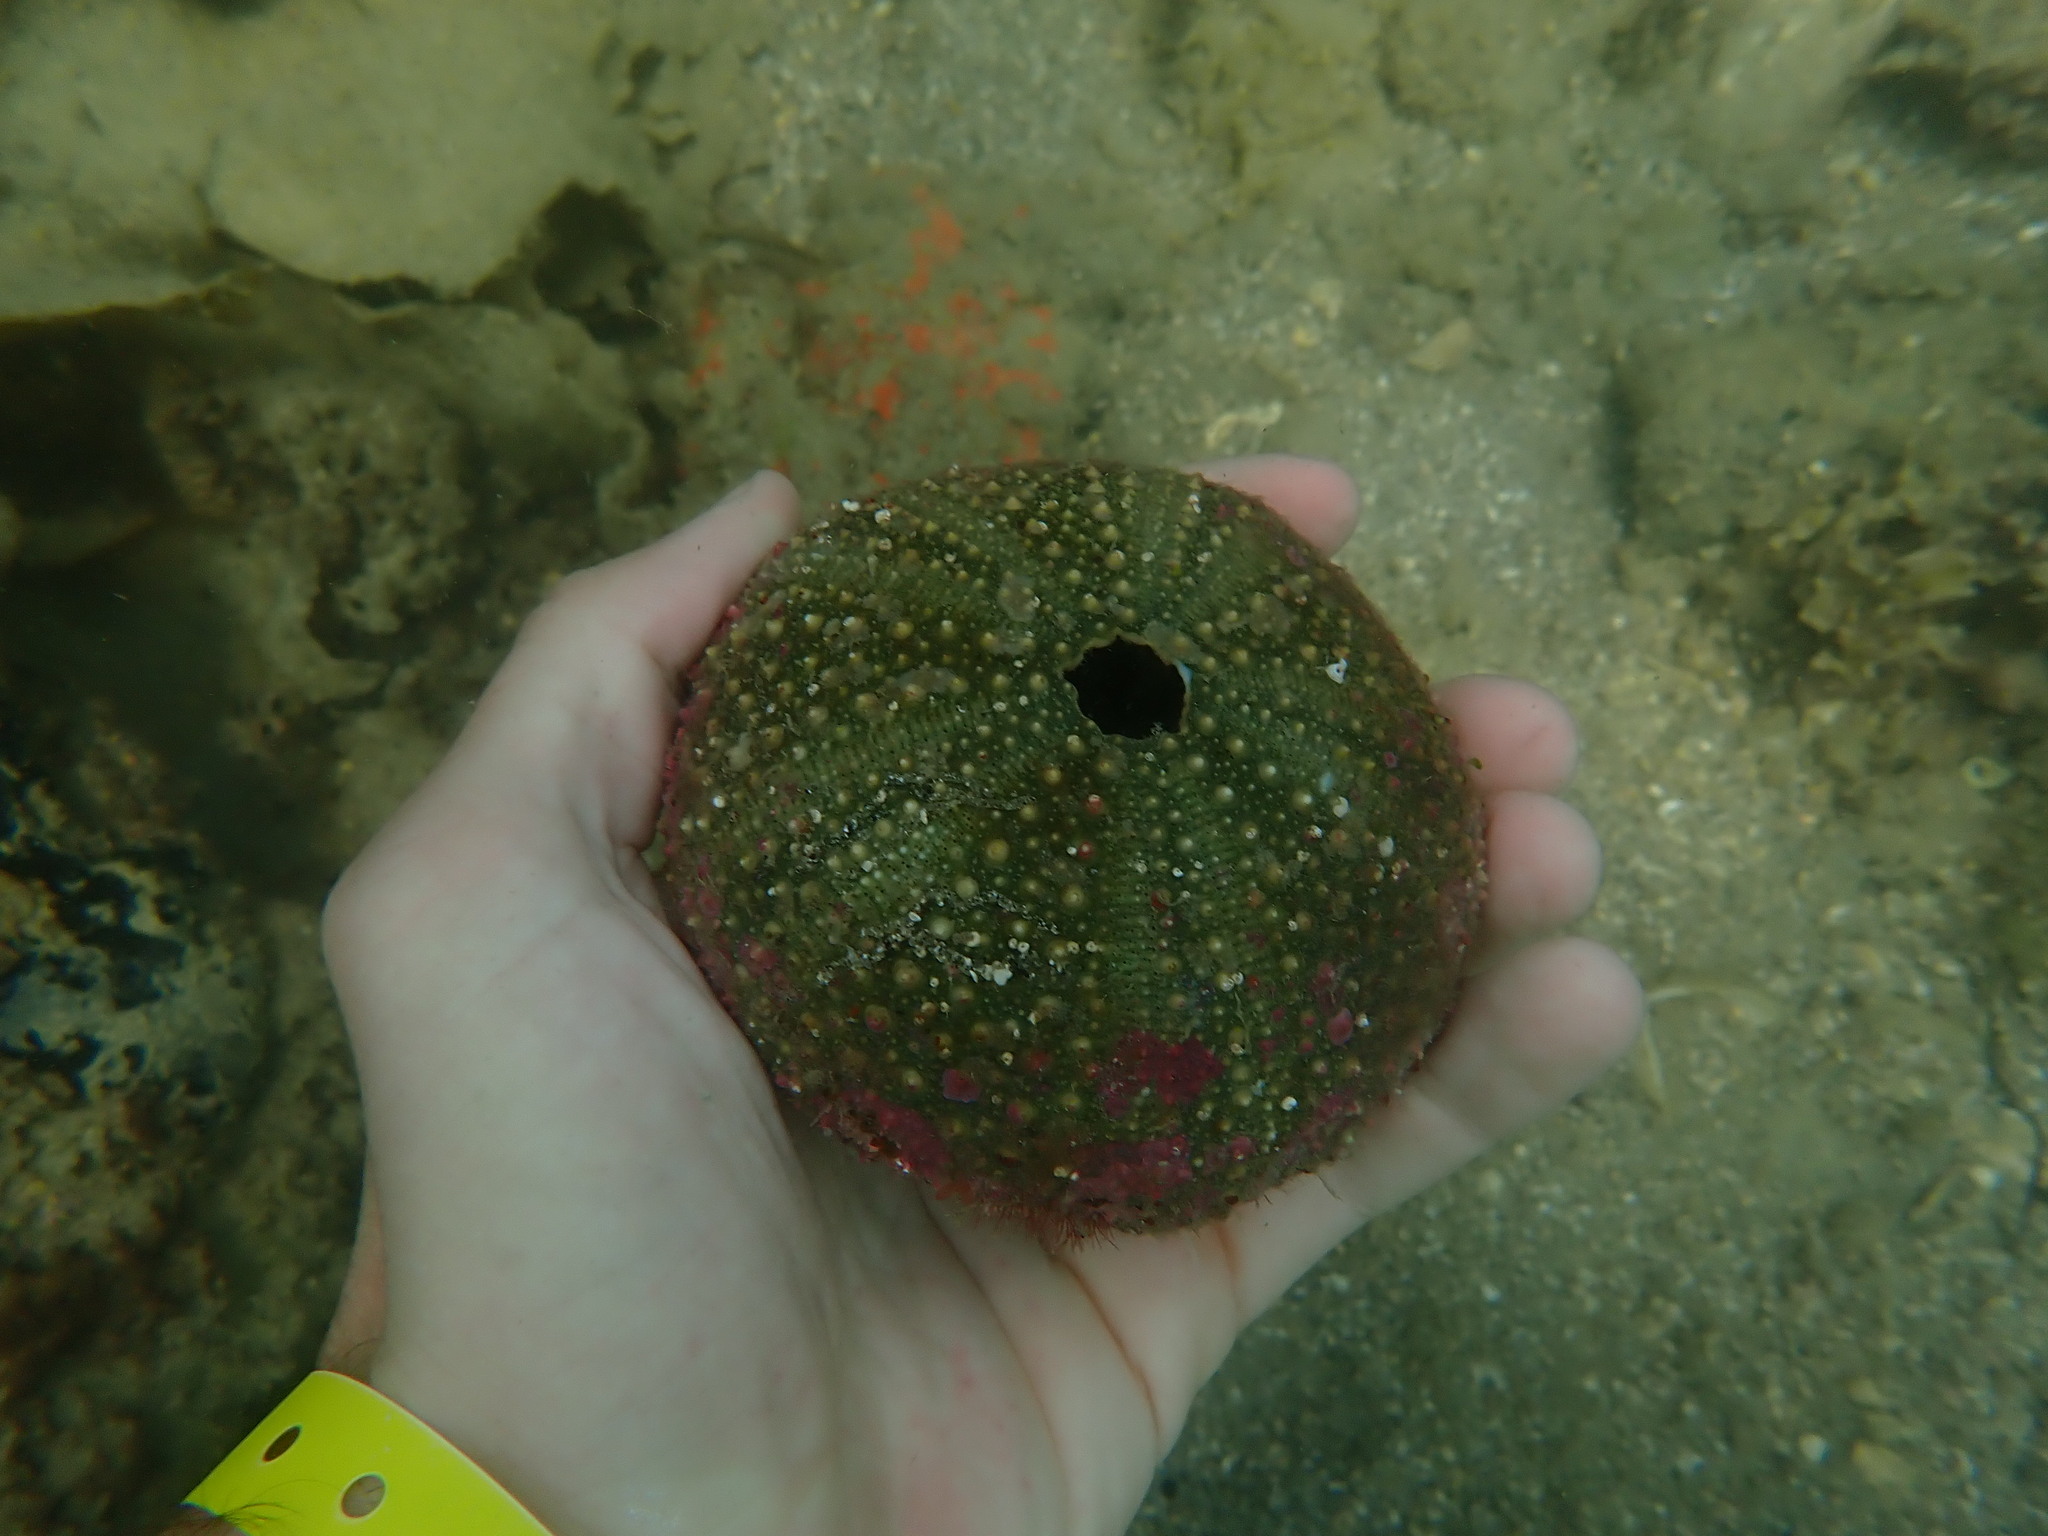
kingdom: Animalia
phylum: Echinodermata
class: Echinoidea
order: Camarodonta
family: Echinometridae
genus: Evechinus
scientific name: Evechinus chloroticus
